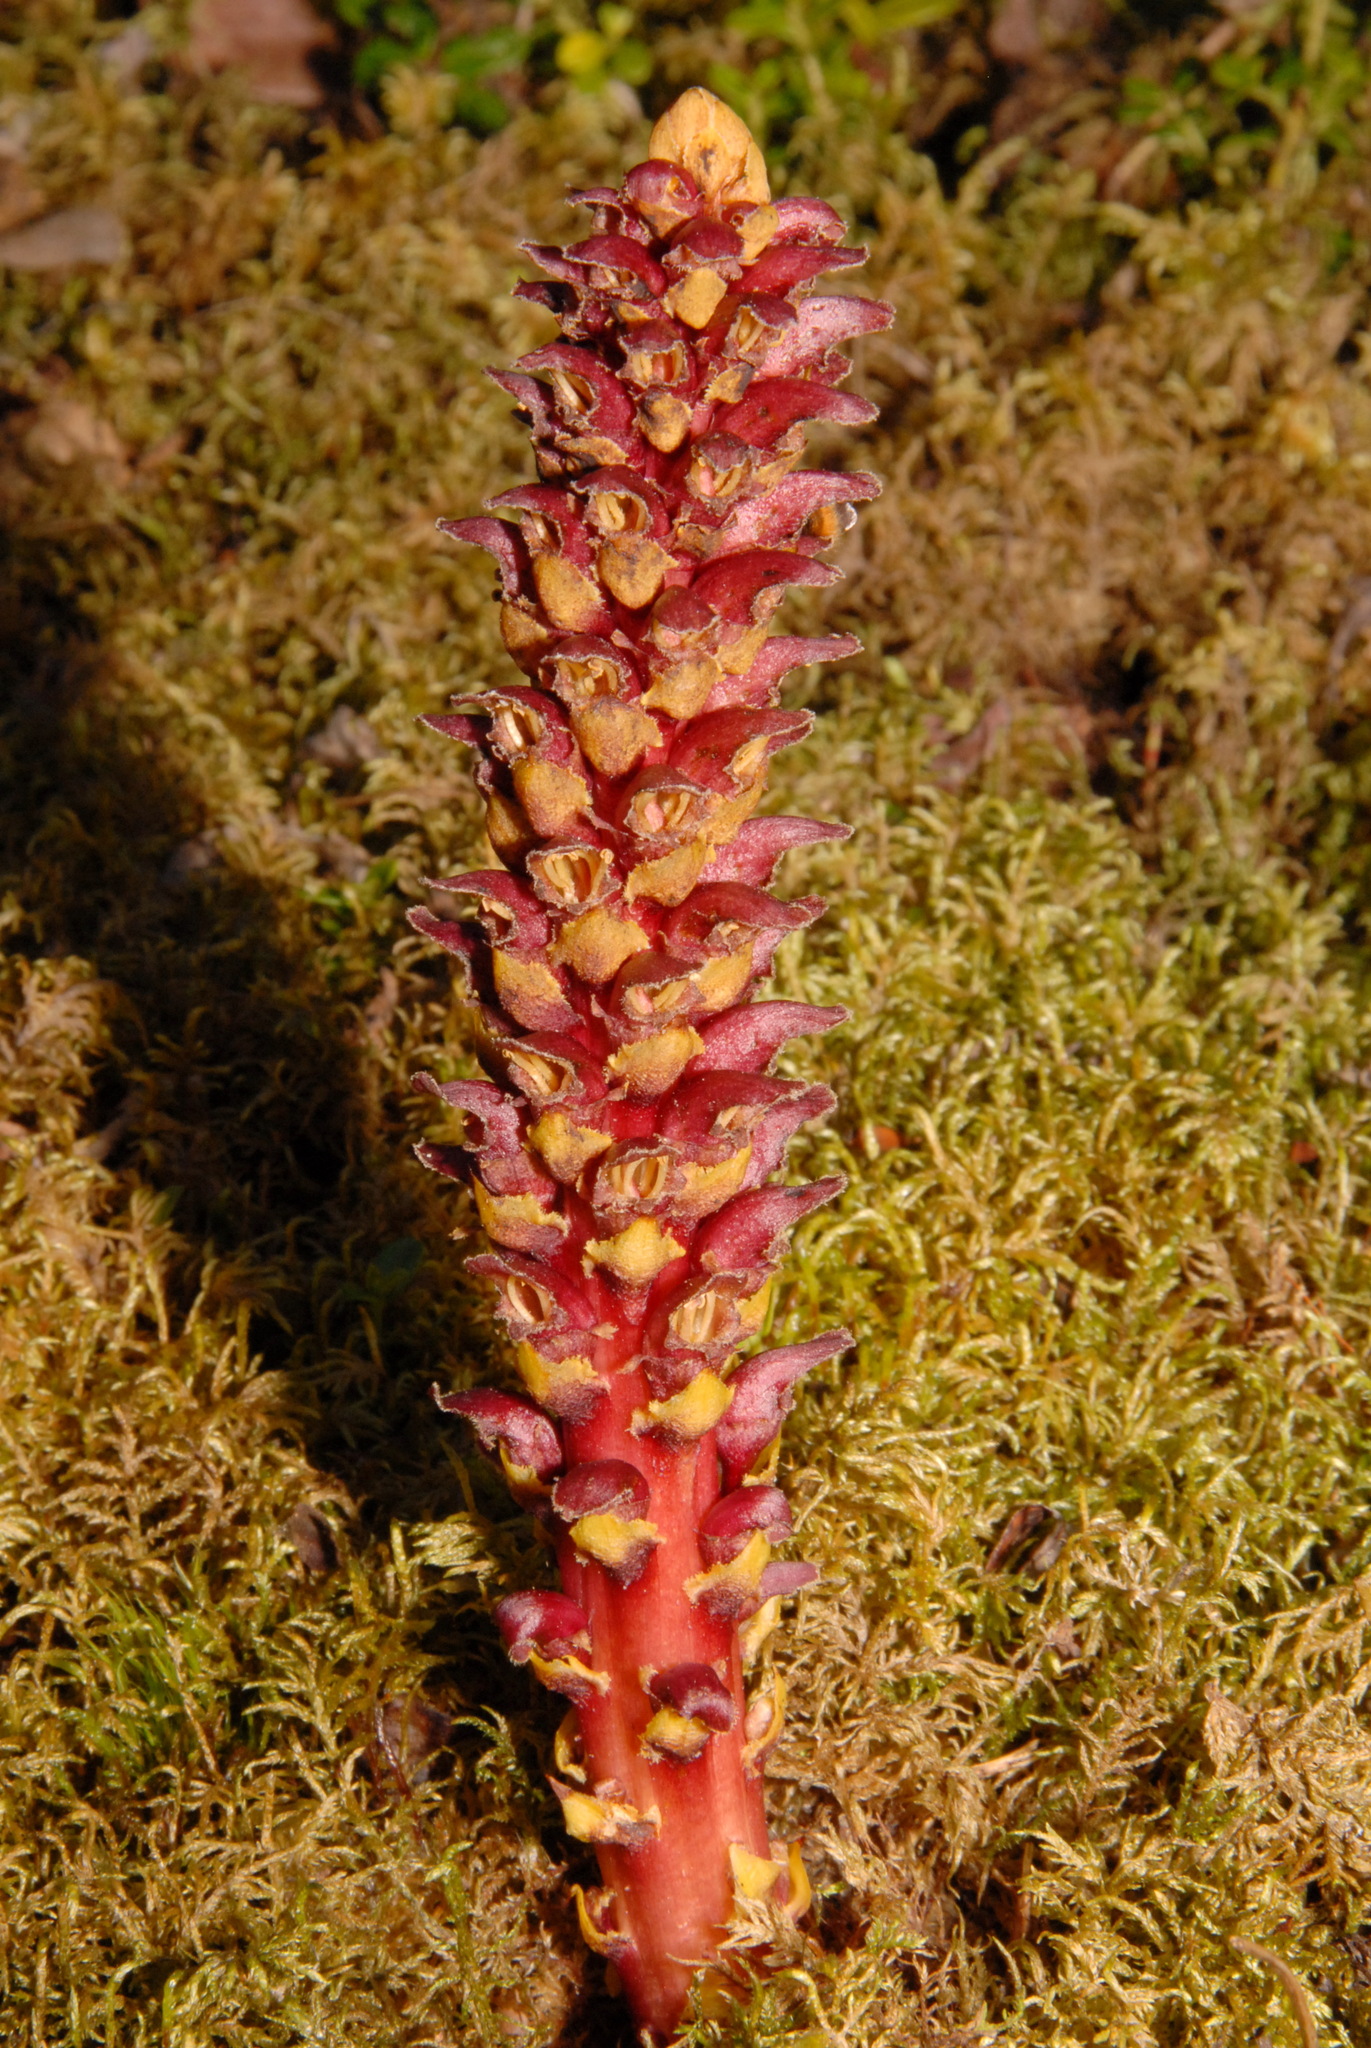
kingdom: Plantae
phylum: Tracheophyta
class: Magnoliopsida
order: Lamiales
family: Orobanchaceae
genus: Boschniakia
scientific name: Boschniakia rossica
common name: Poque
